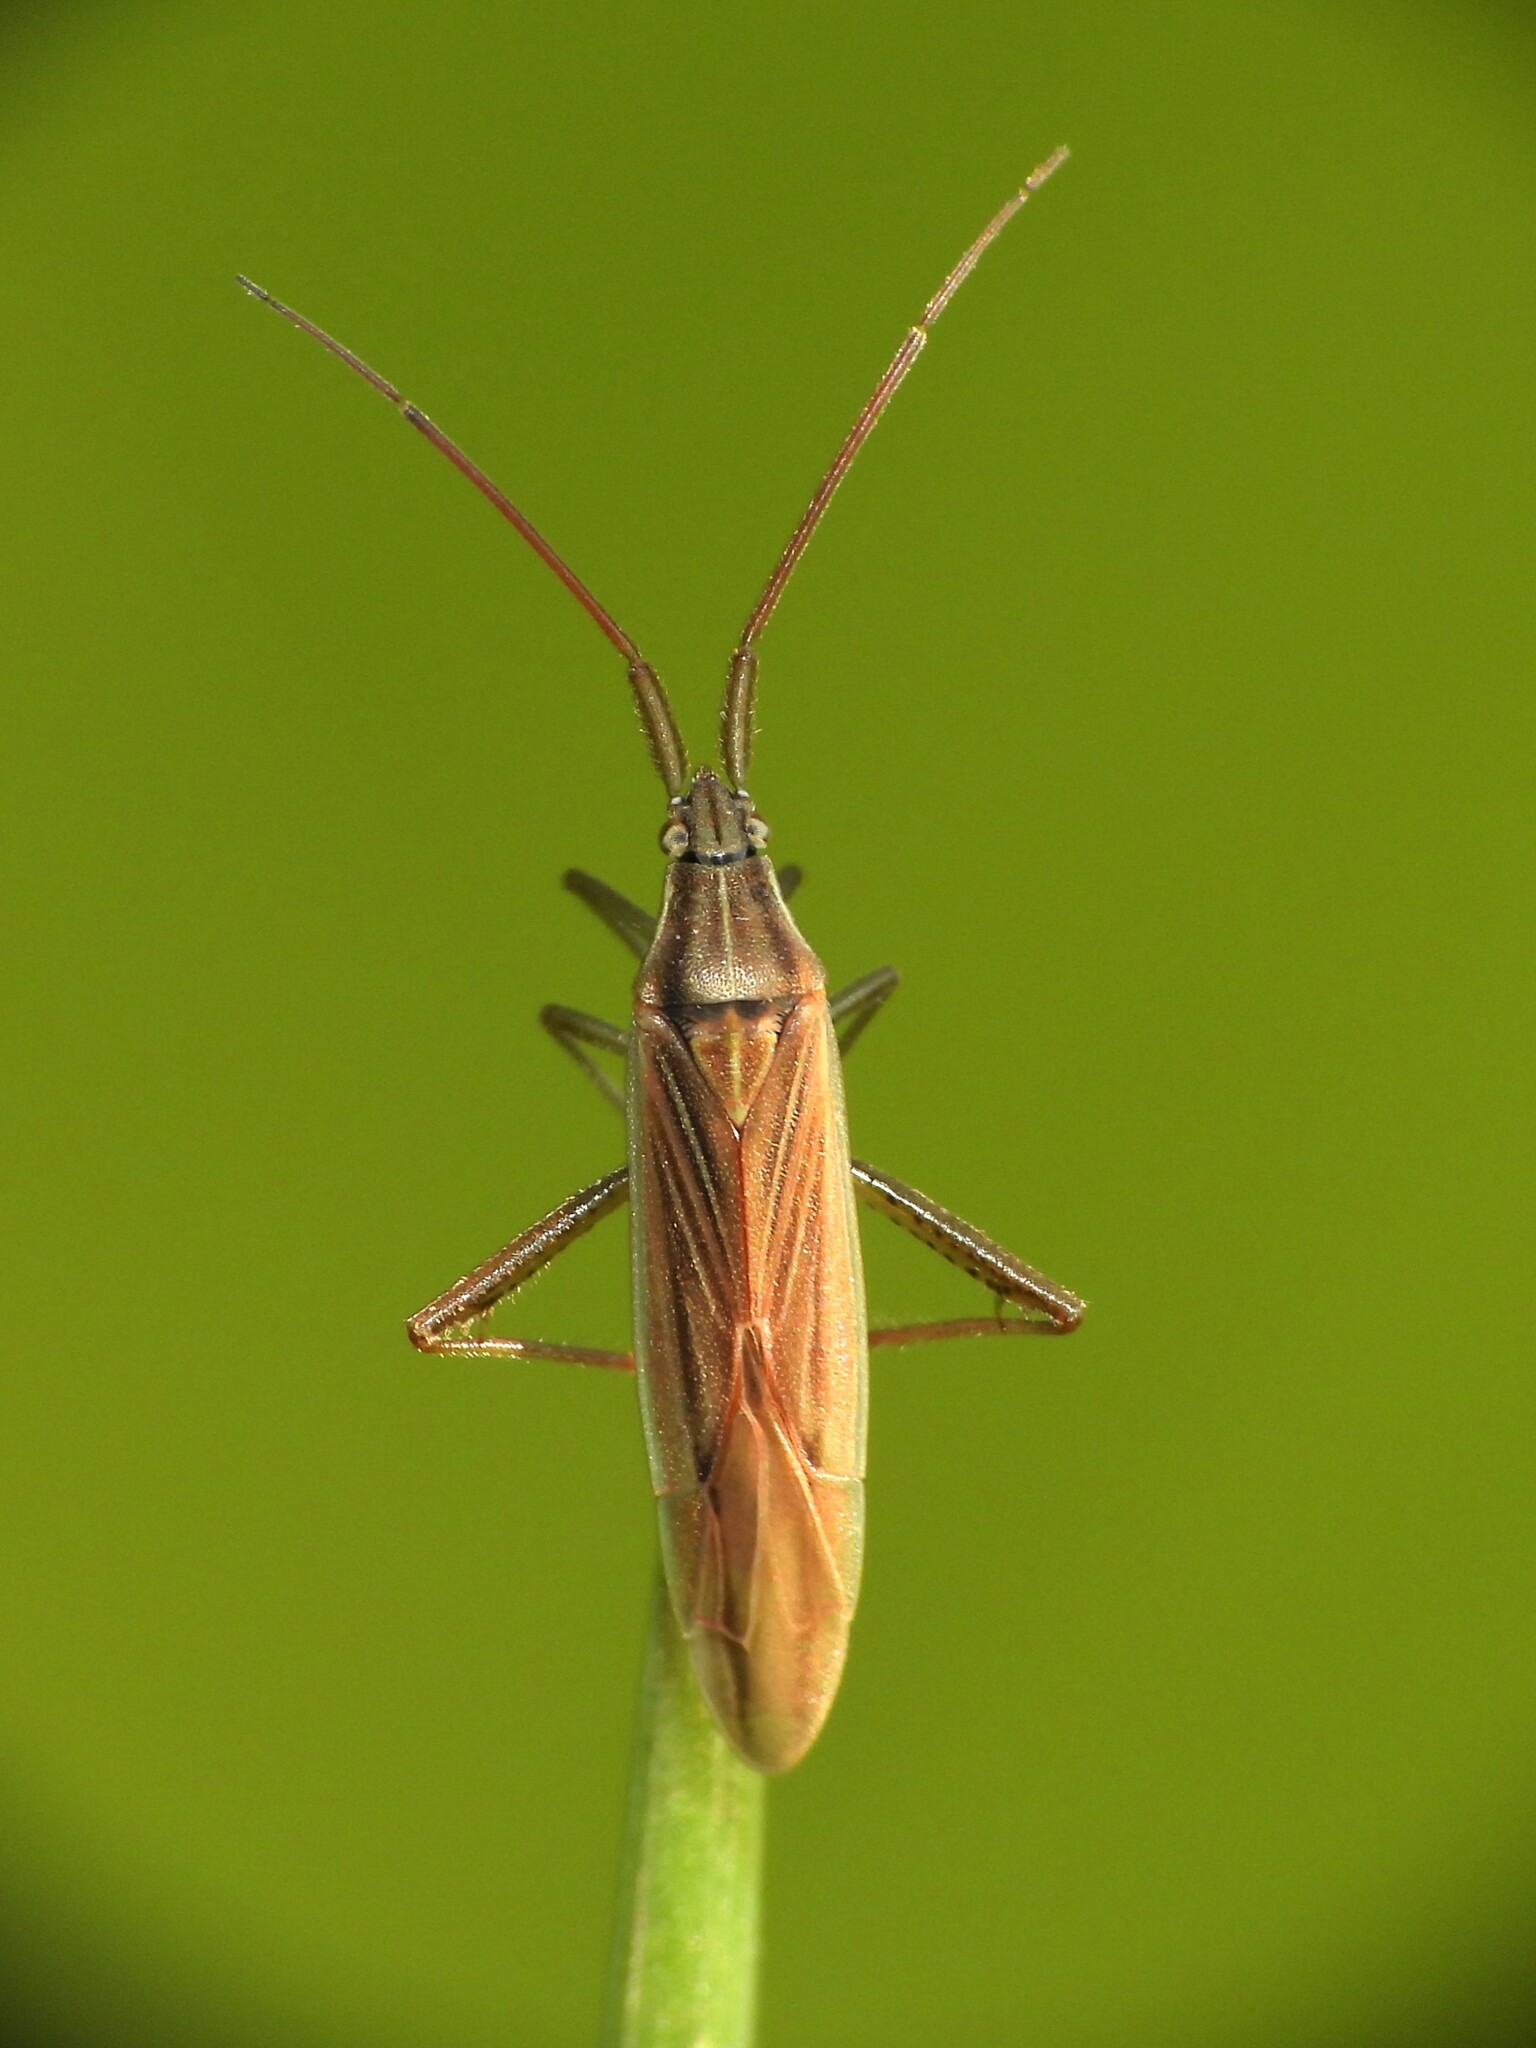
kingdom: Animalia
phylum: Arthropoda
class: Insecta
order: Hemiptera
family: Miridae
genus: Stenodema
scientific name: Stenodema calcarata
